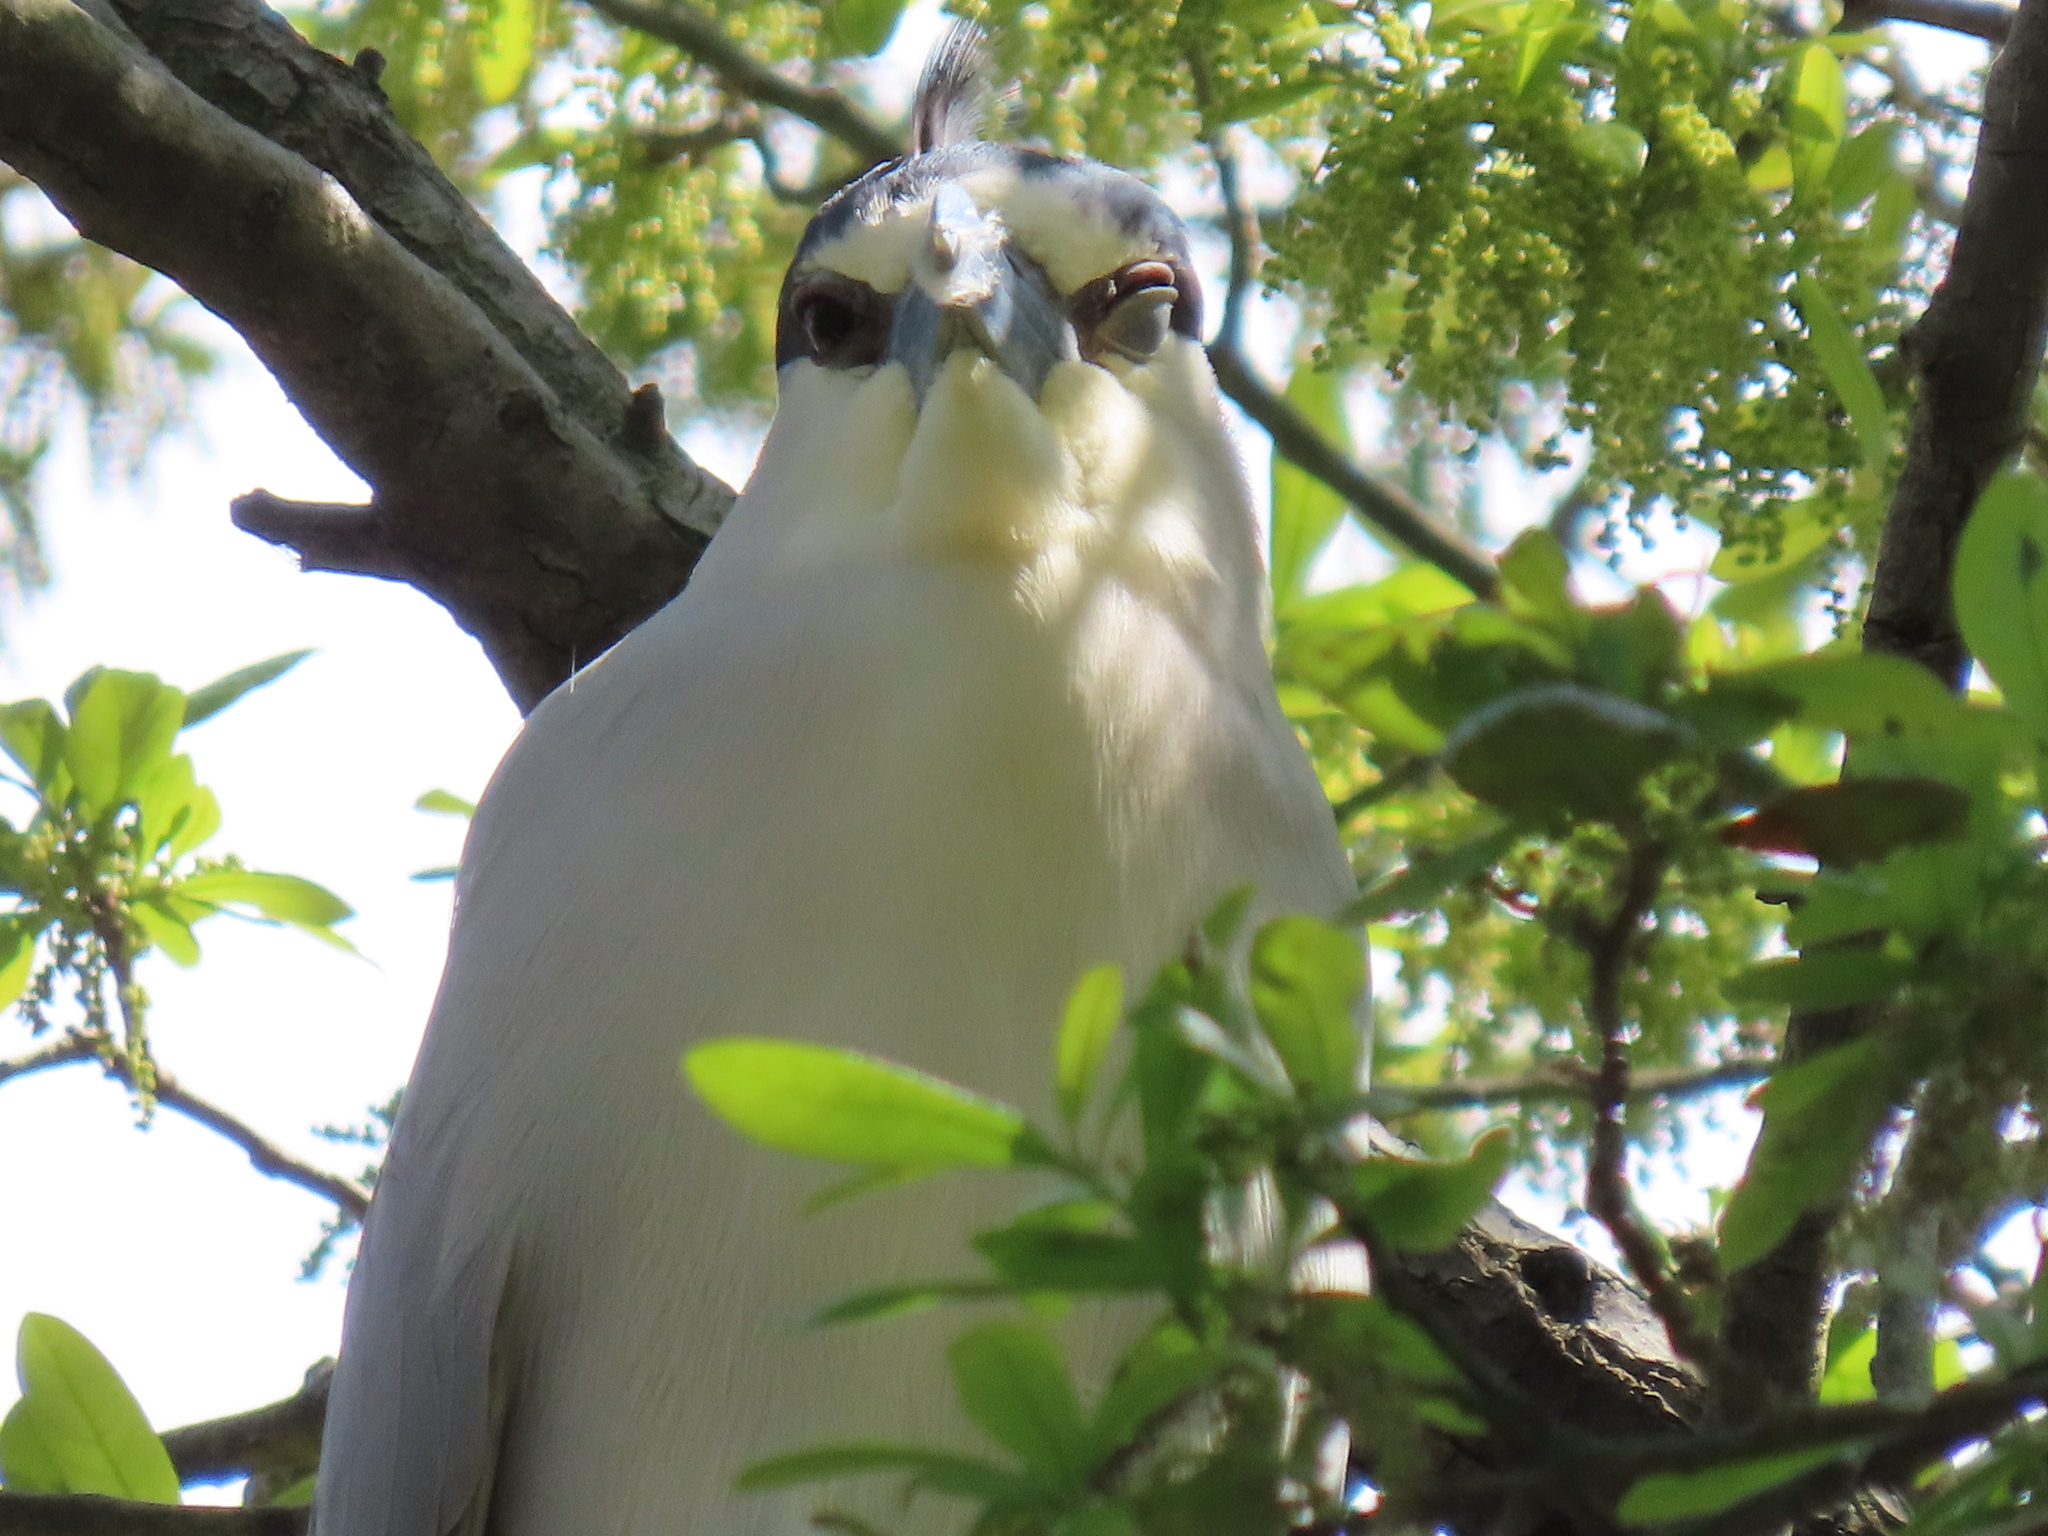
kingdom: Animalia
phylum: Chordata
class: Aves
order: Pelecaniformes
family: Ardeidae
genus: Nycticorax
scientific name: Nycticorax nycticorax
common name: Black-crowned night heron
